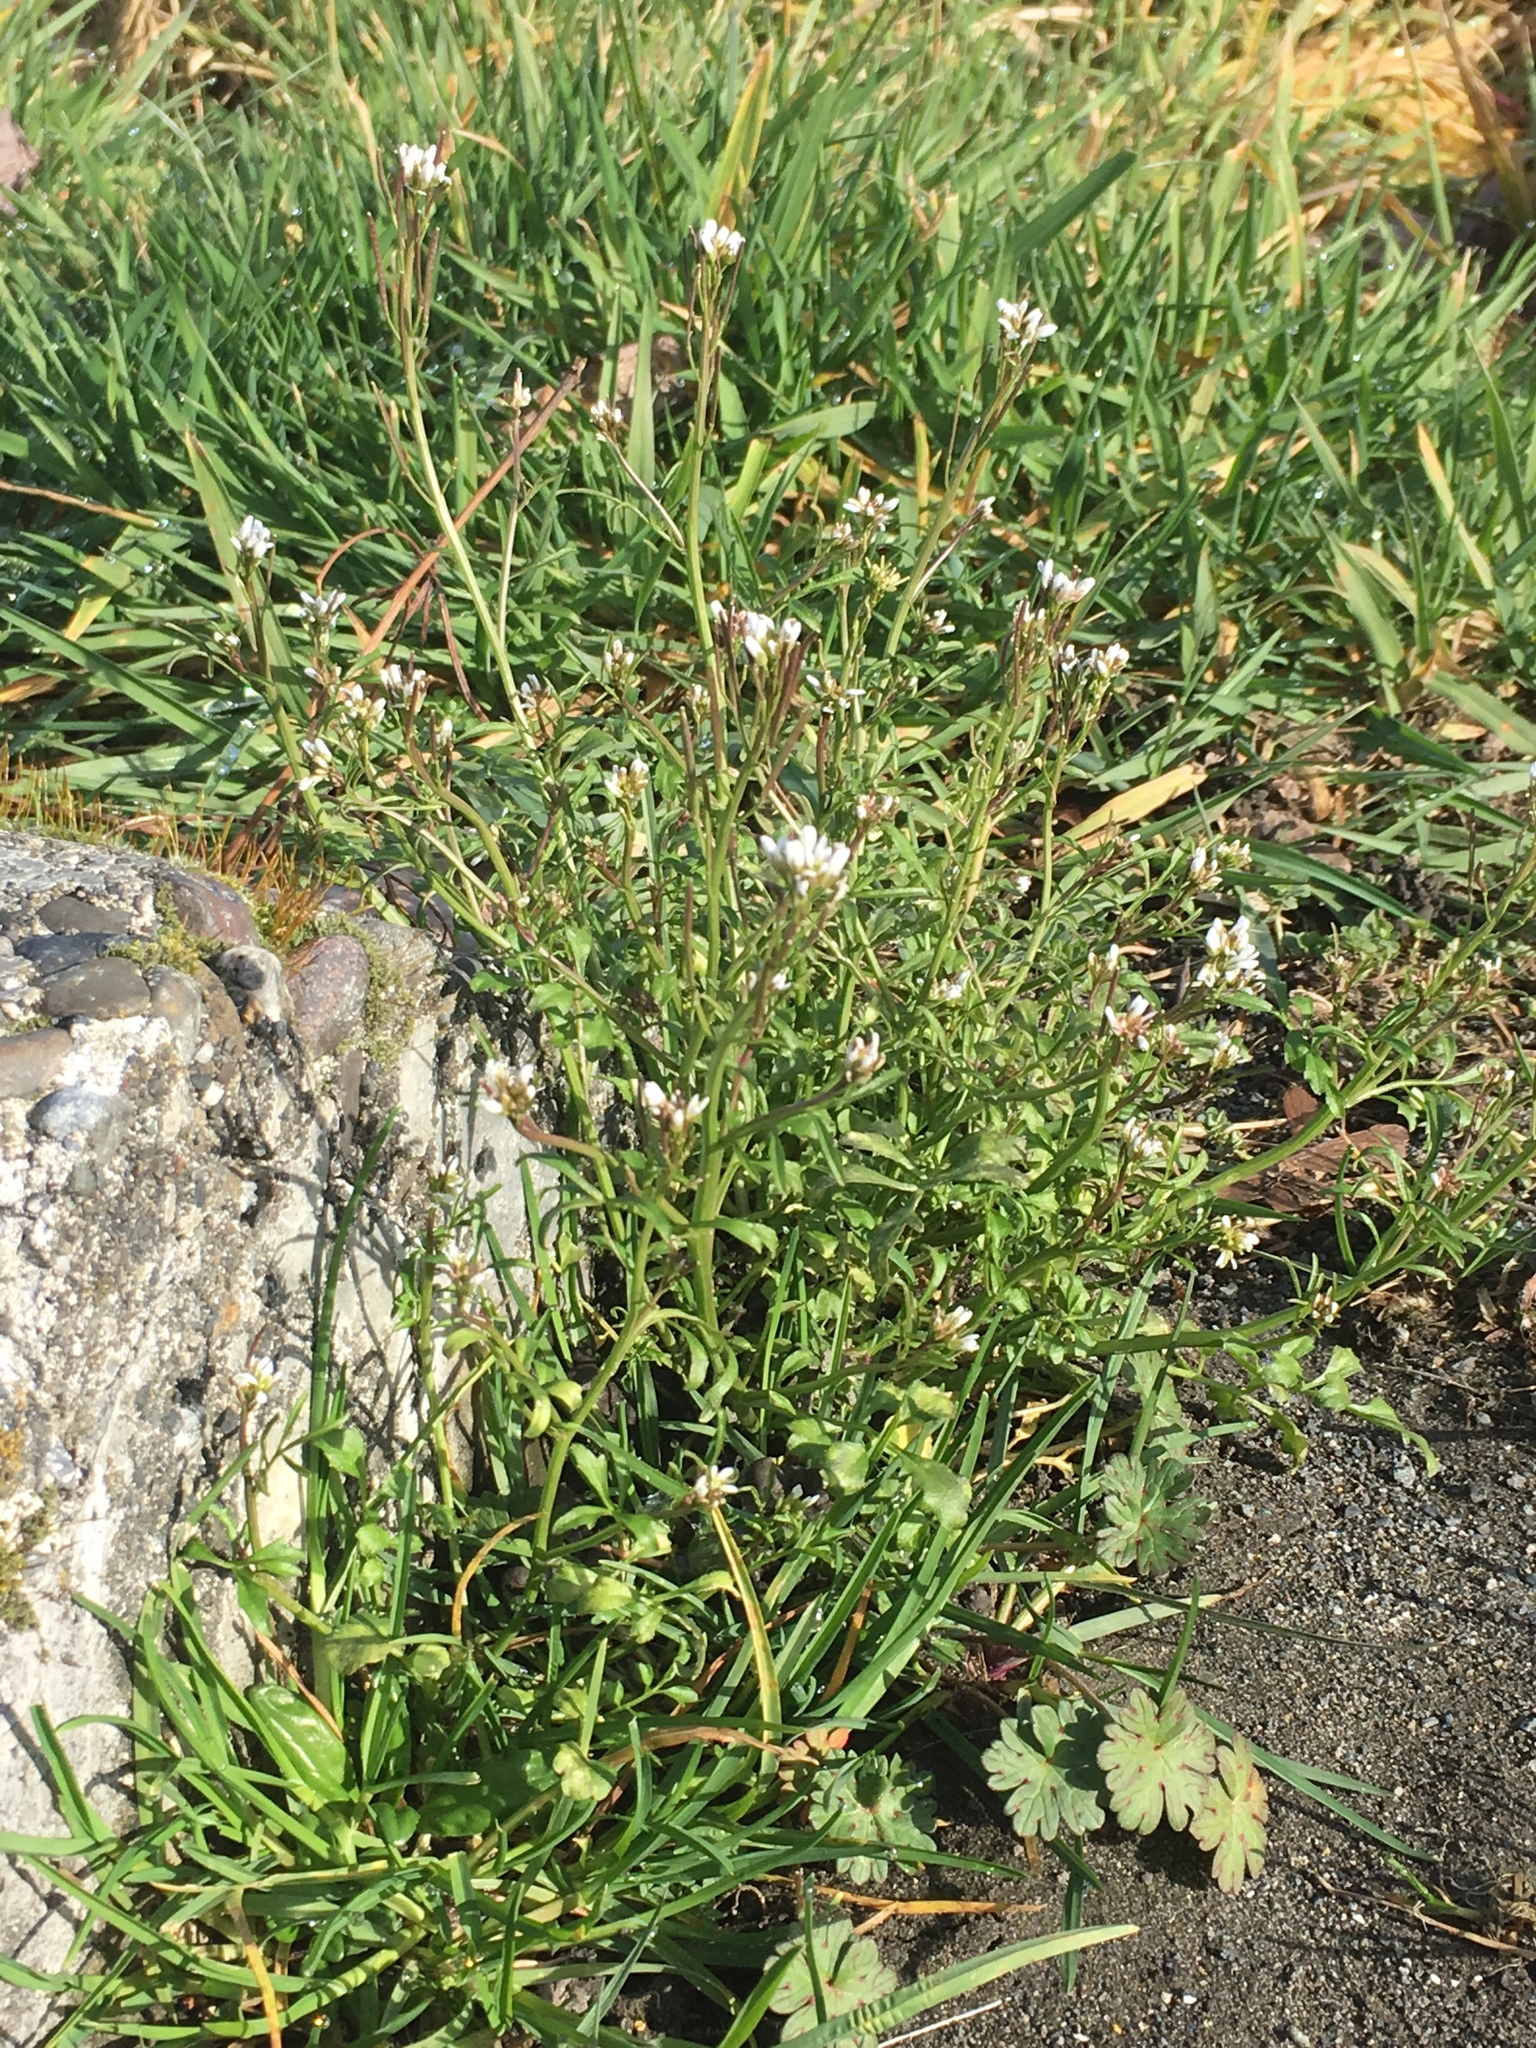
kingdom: Plantae
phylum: Tracheophyta
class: Magnoliopsida
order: Brassicales
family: Brassicaceae
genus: Cardamine
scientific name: Cardamine hirsuta
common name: Hairy bittercress
